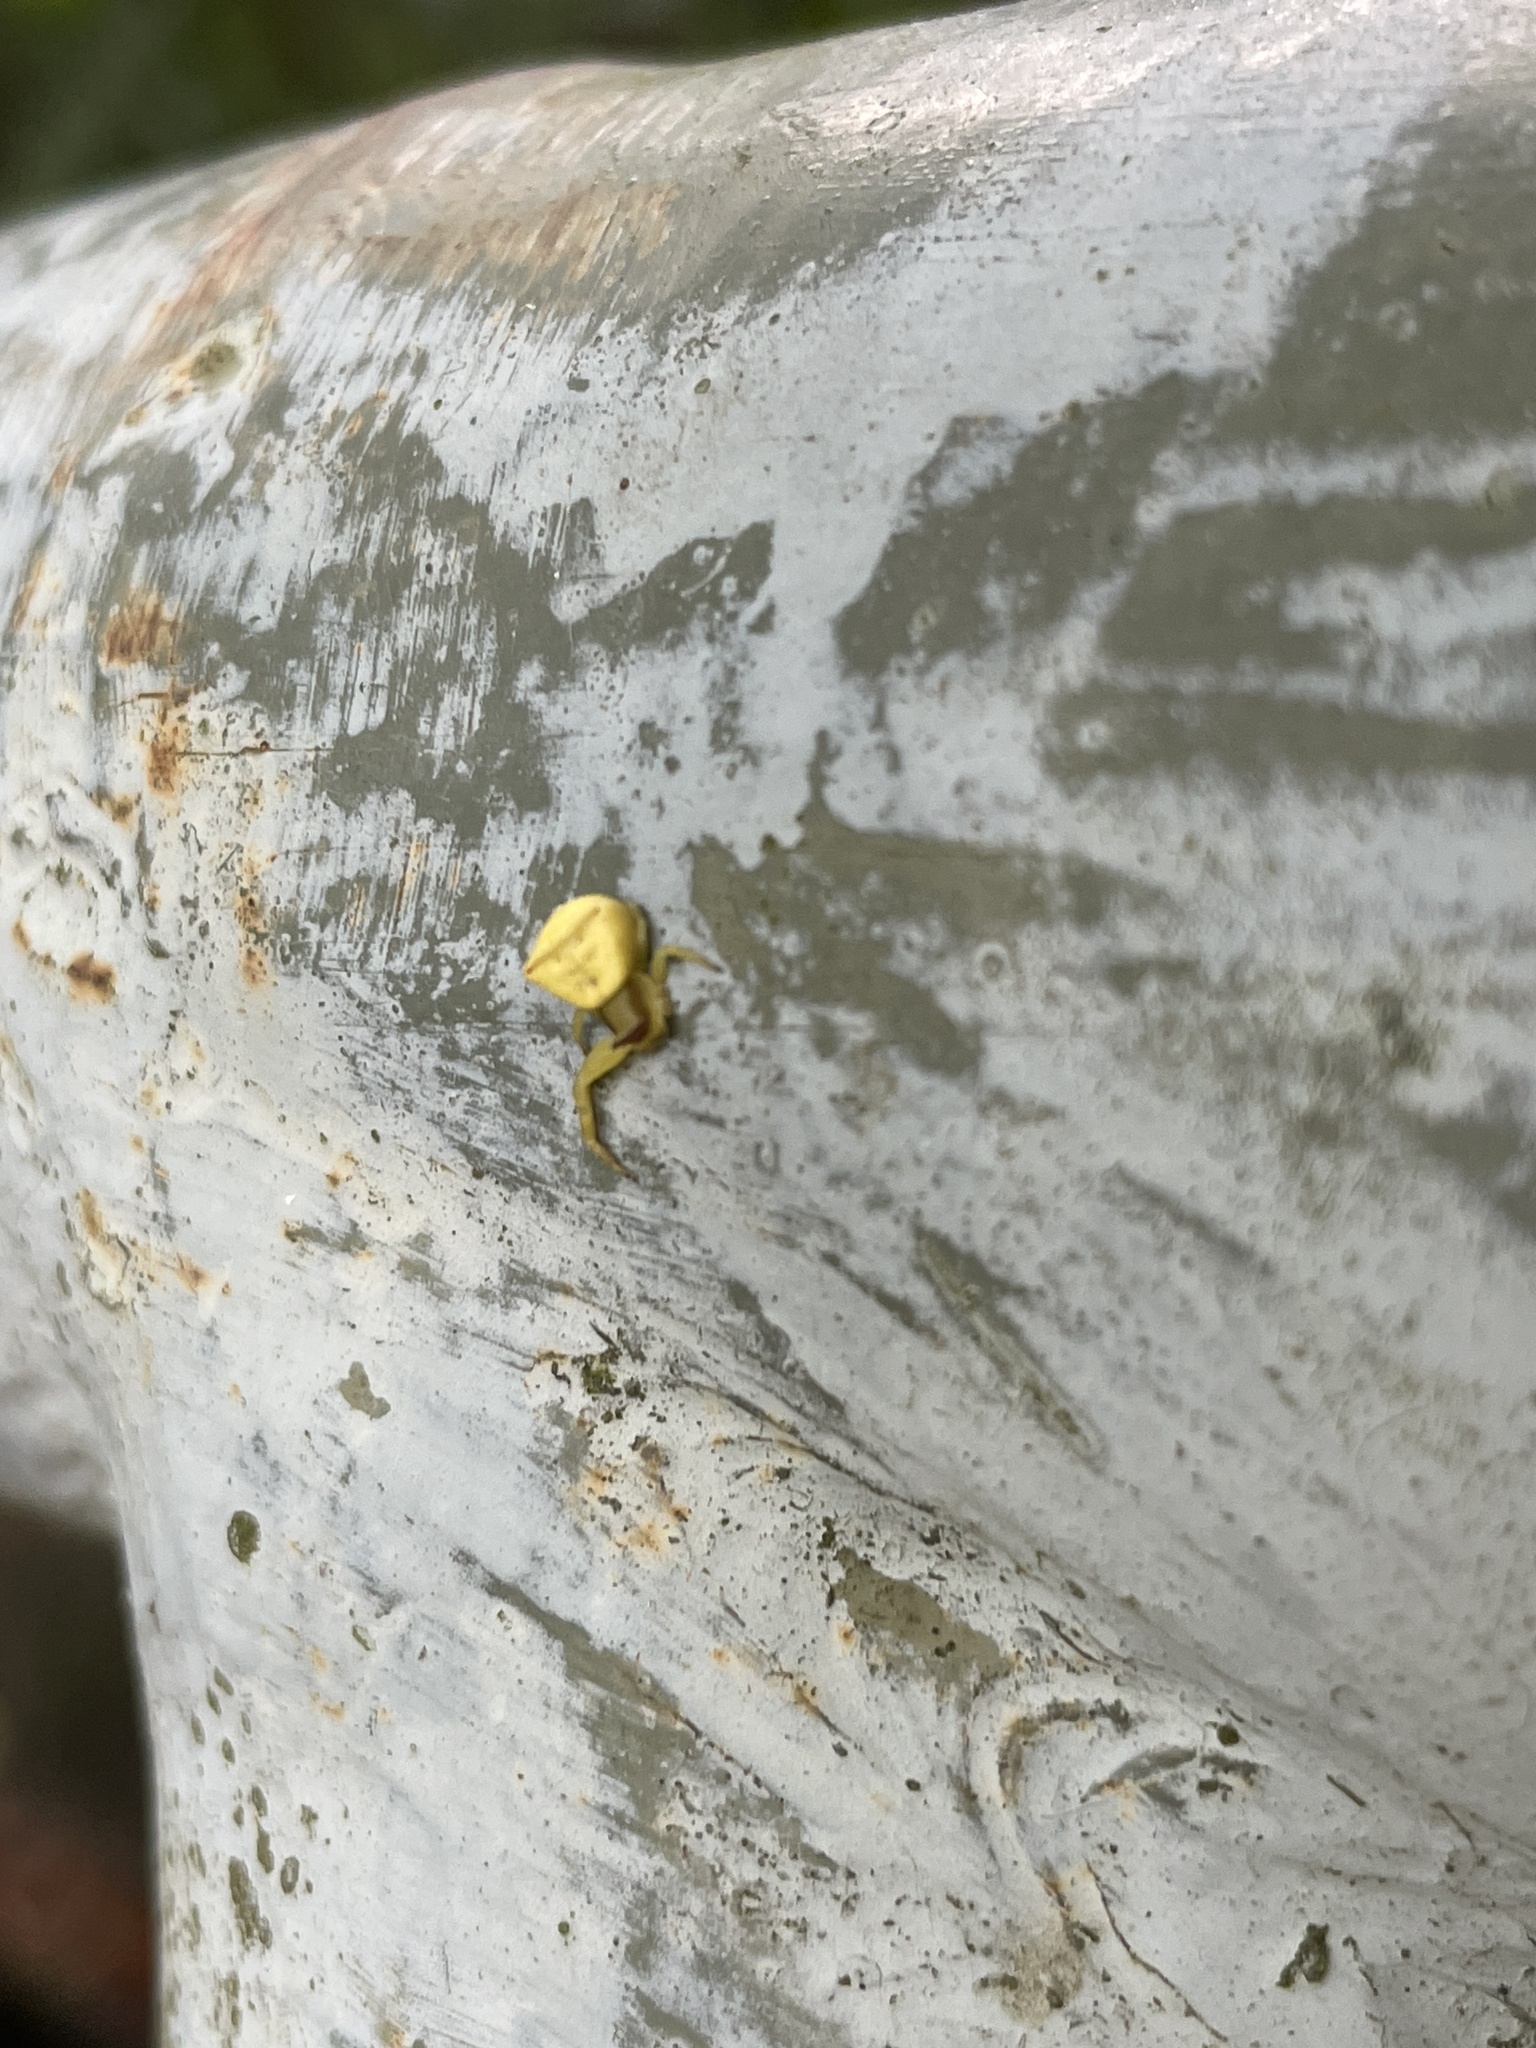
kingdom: Animalia
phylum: Arthropoda
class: Arachnida
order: Araneae
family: Thomisidae
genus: Thomisus
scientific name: Thomisus labefactus
